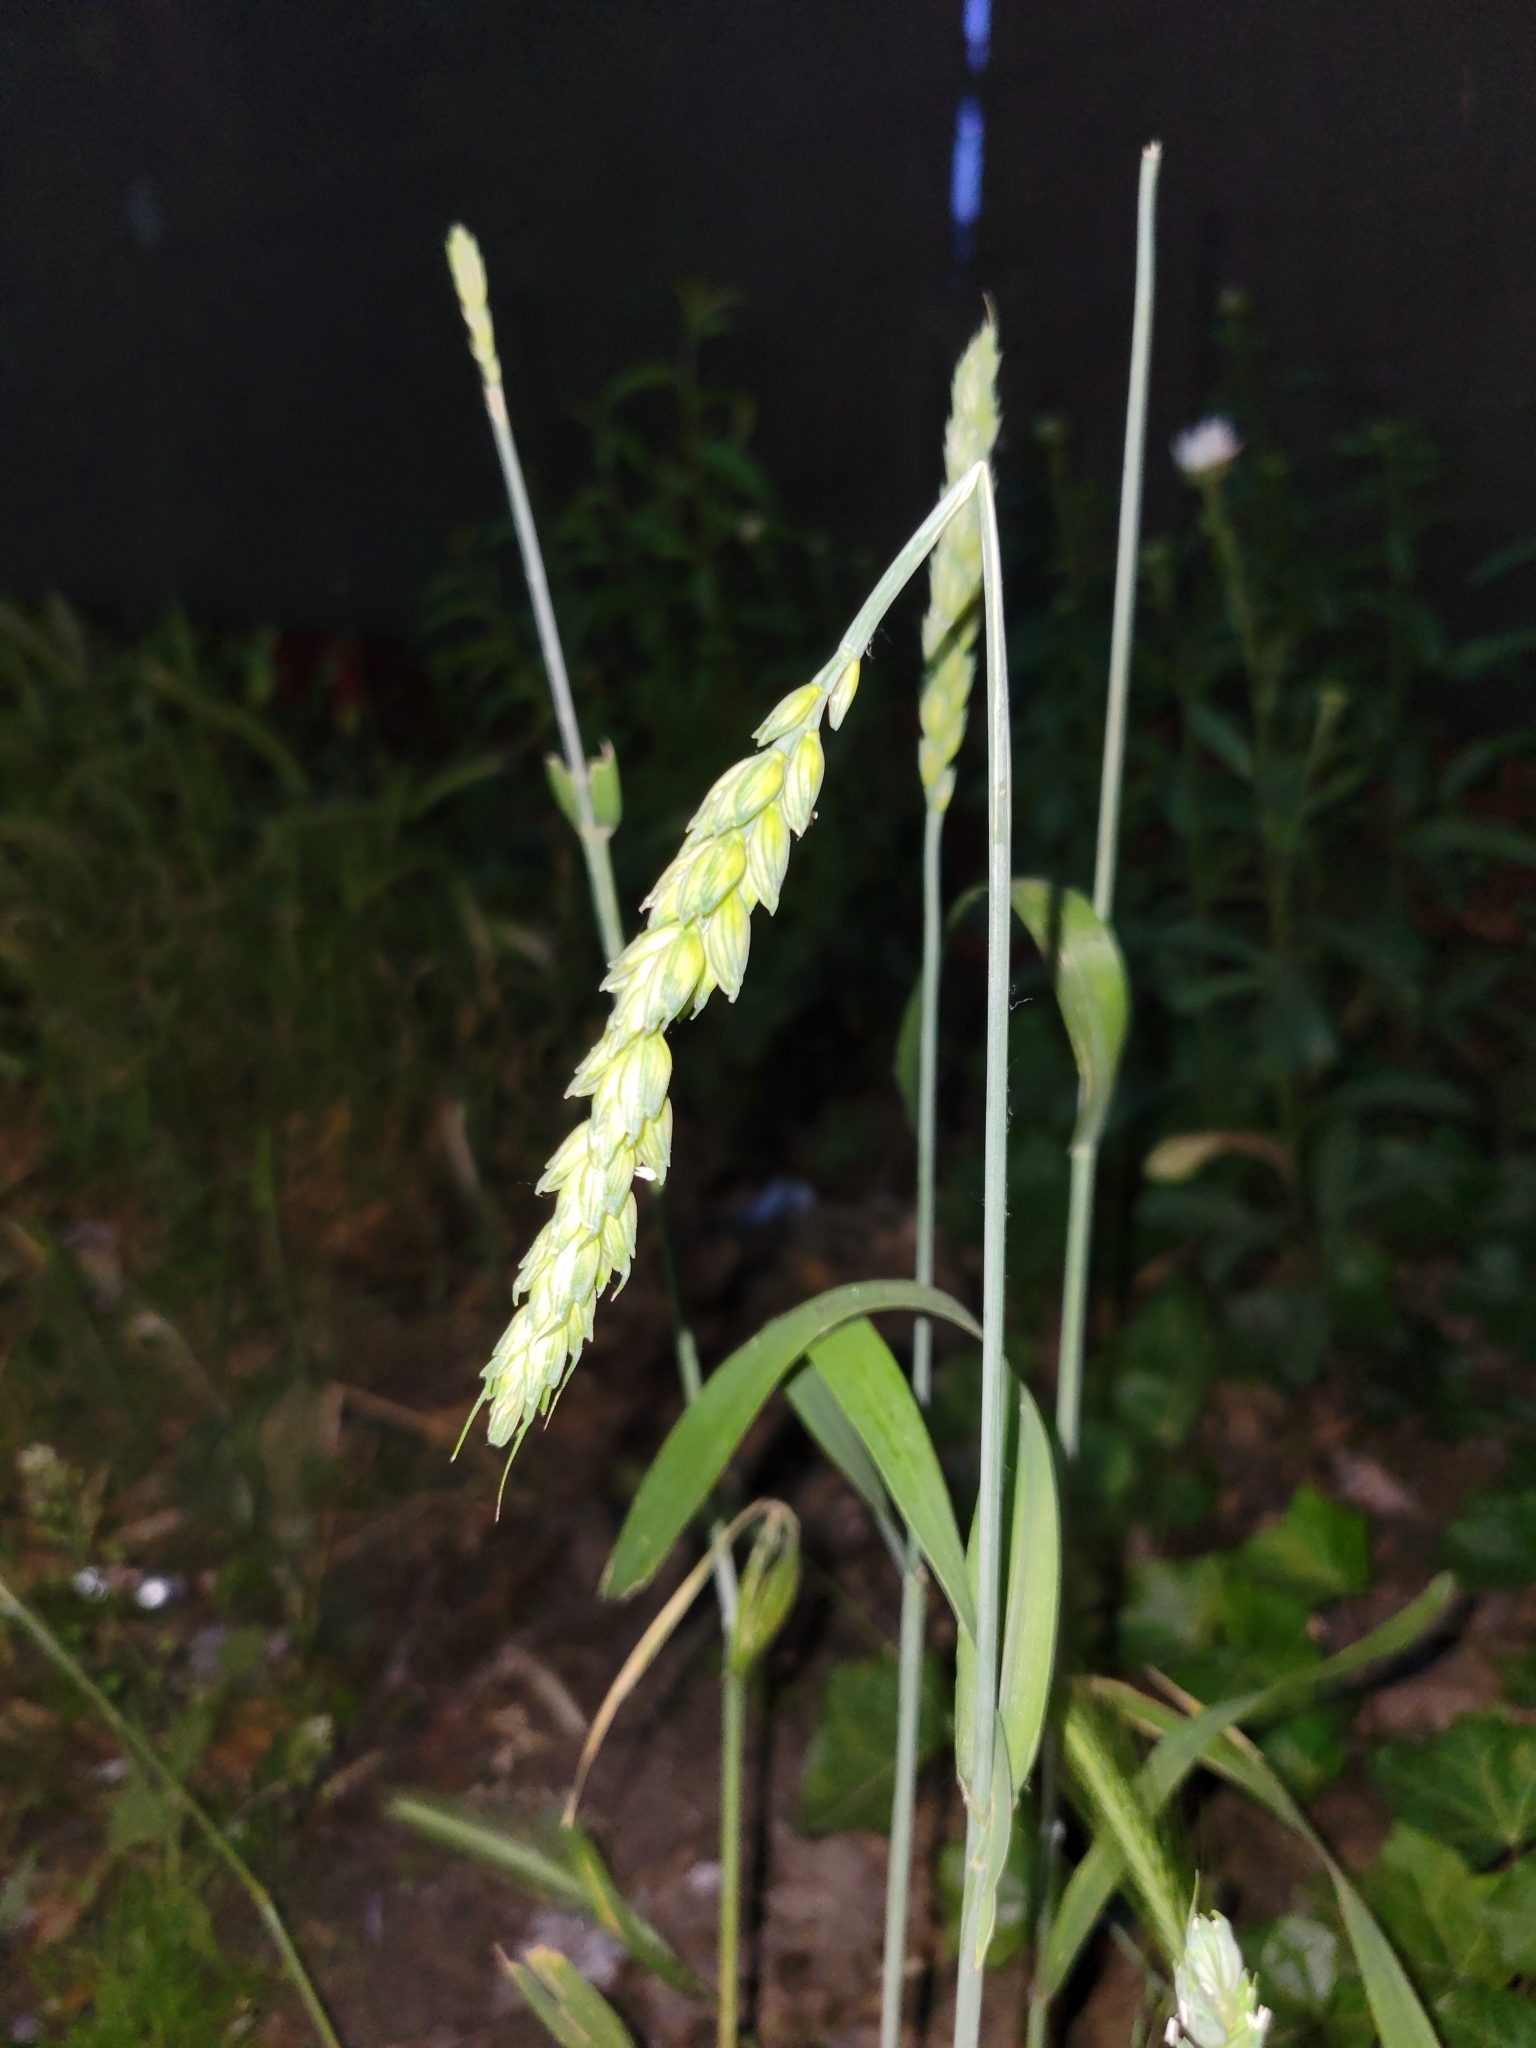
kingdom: Plantae
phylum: Tracheophyta
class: Liliopsida
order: Poales
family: Poaceae
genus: Triticum
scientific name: Triticum aestivum
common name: Common wheat
